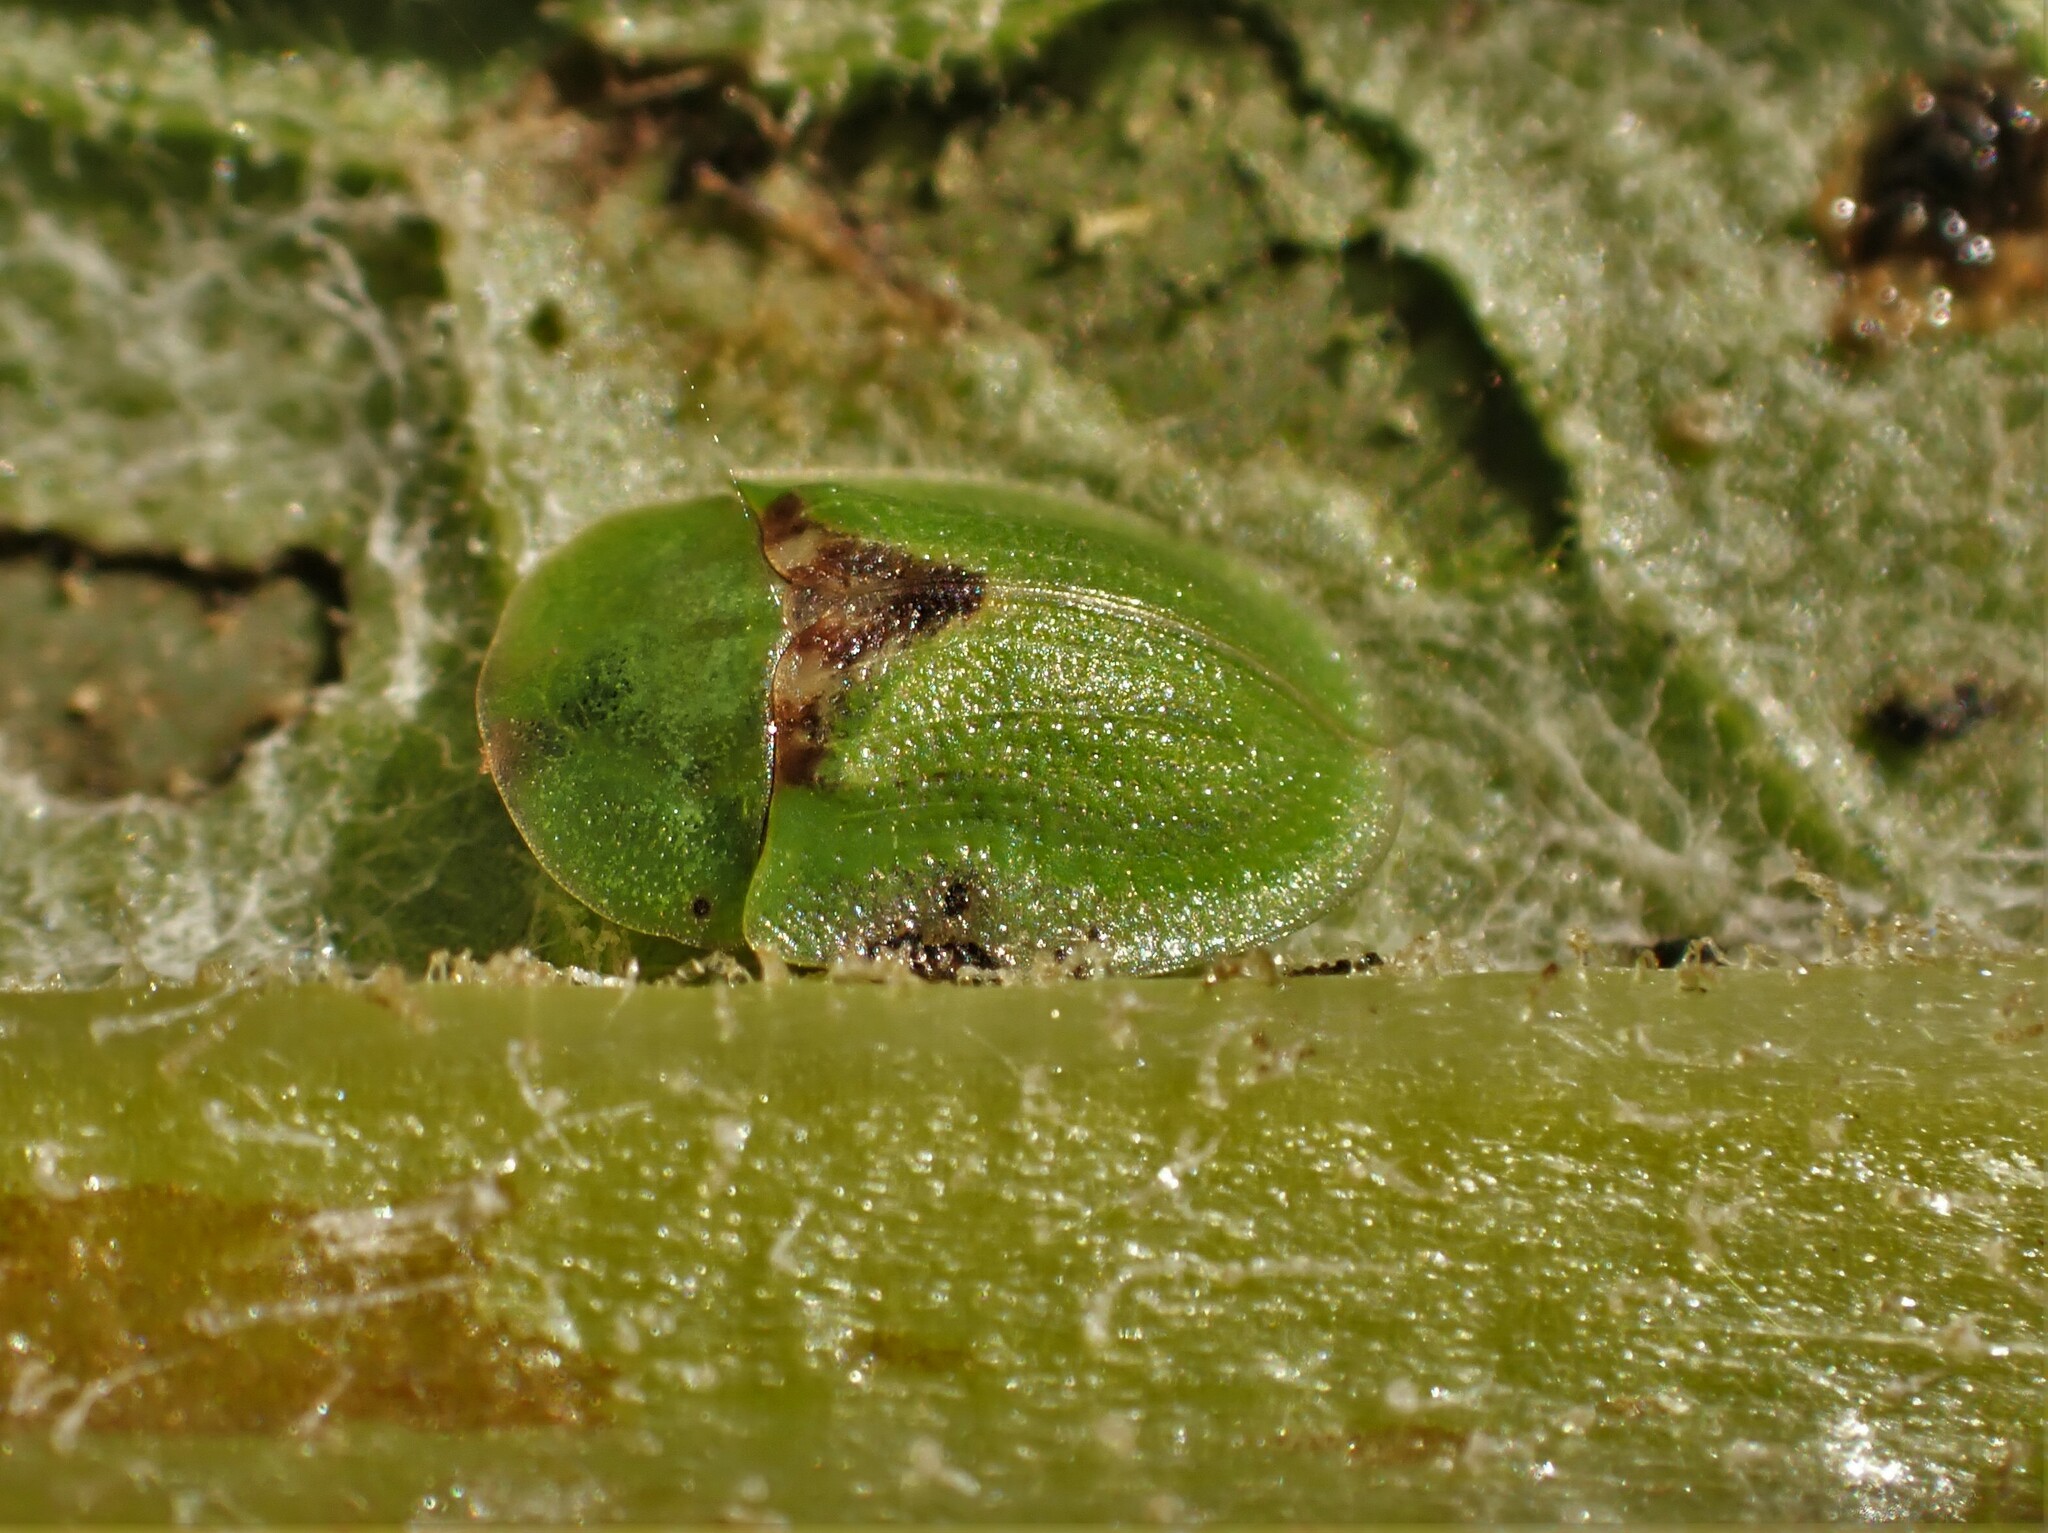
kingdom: Animalia
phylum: Arthropoda
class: Insecta
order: Coleoptera
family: Chrysomelidae
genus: Cassida
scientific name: Cassida rubiginosa
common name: Thistle tortoise beetle
